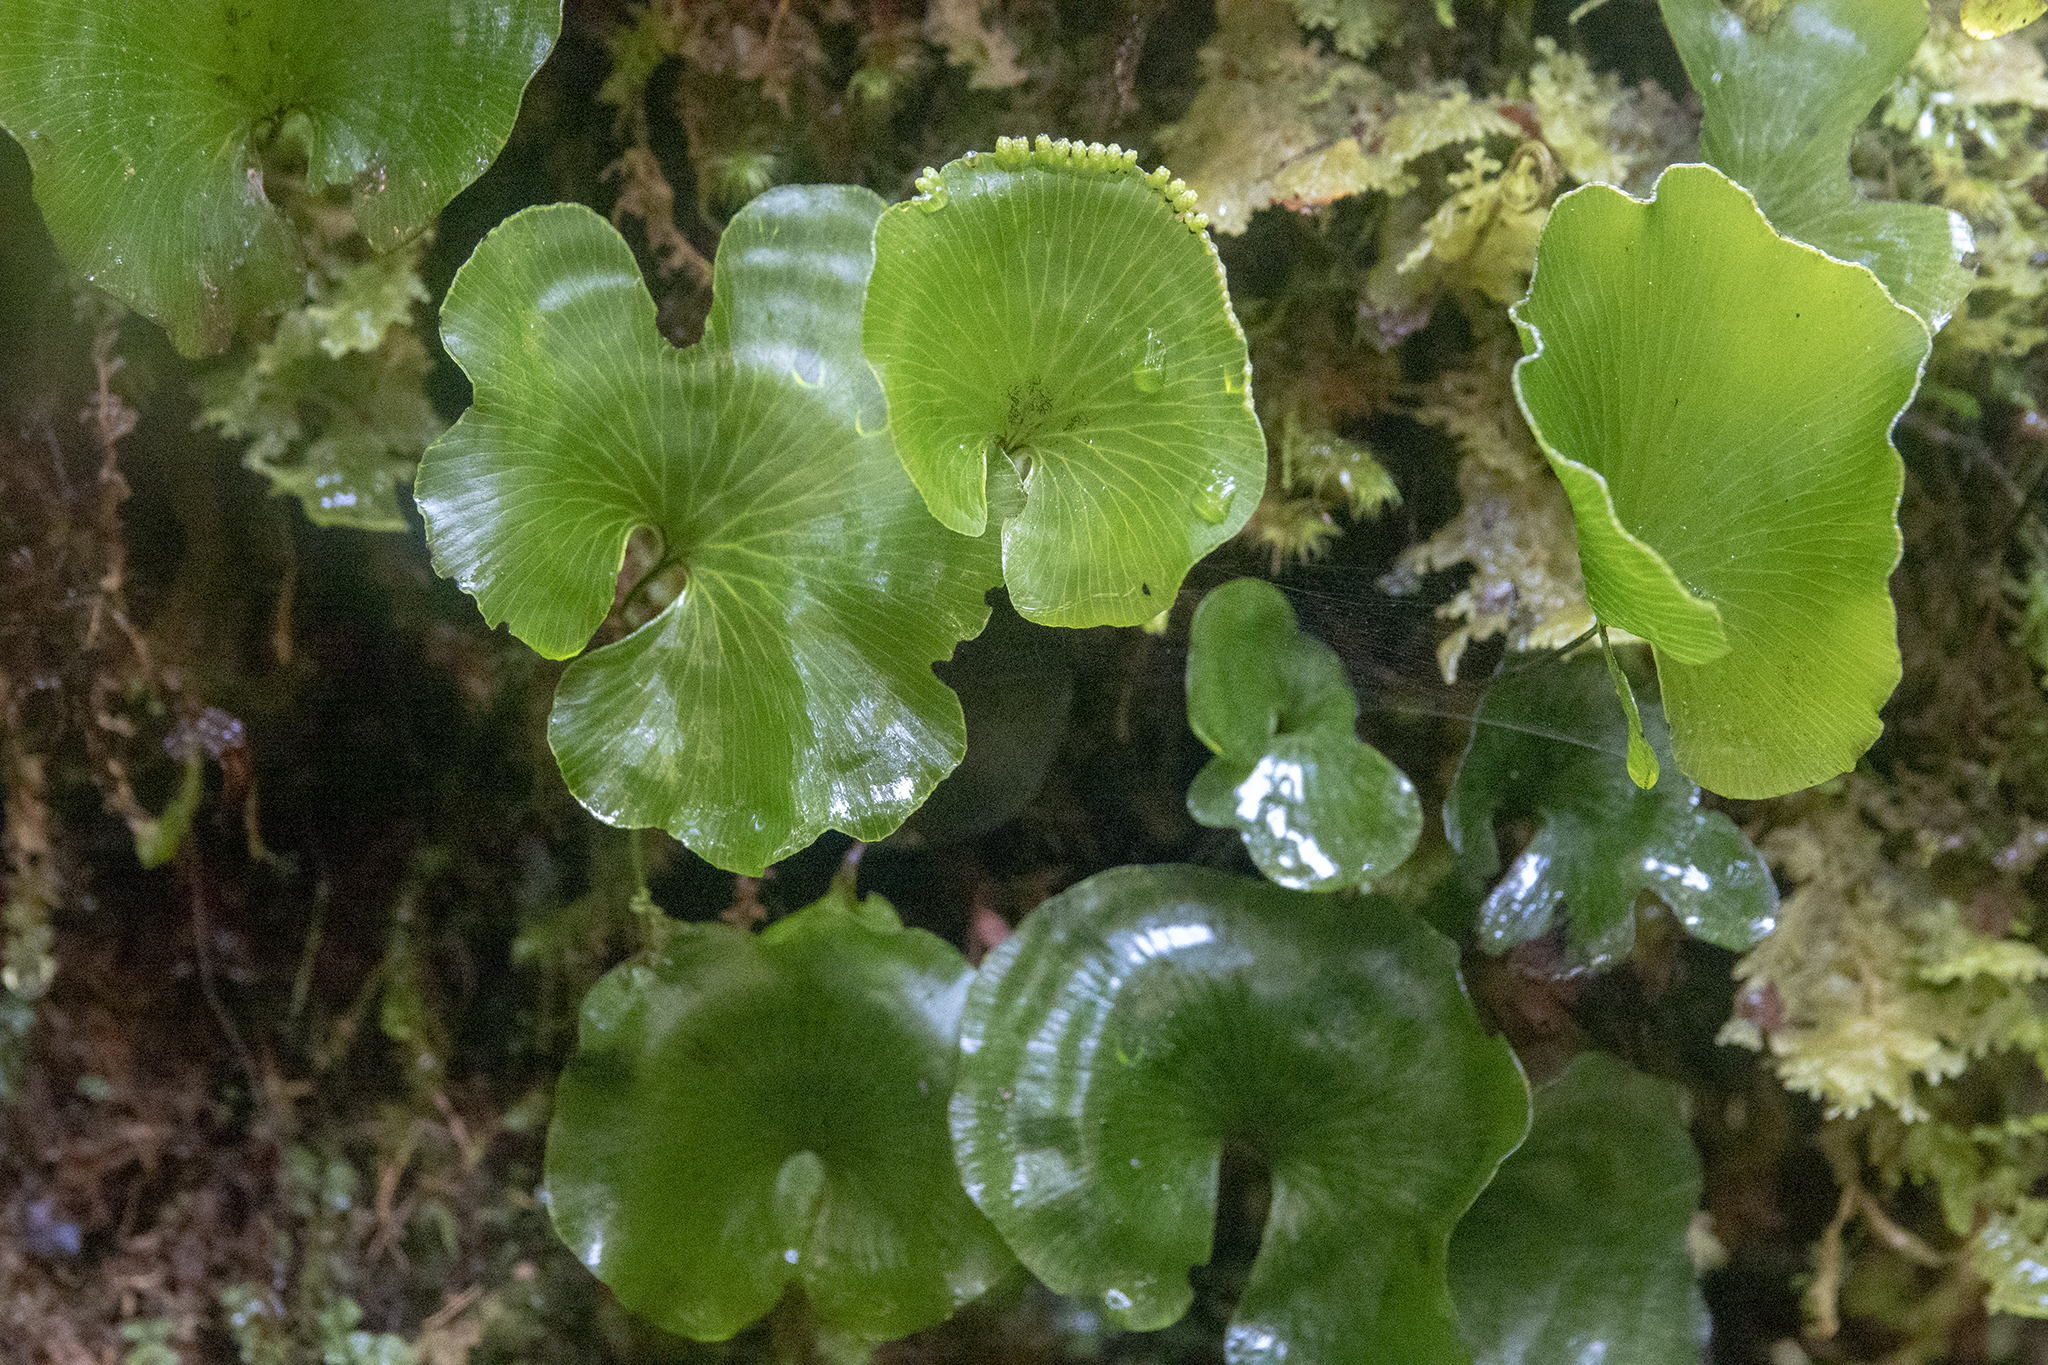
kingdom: Plantae
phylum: Tracheophyta
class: Polypodiopsida
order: Hymenophyllales
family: Hymenophyllaceae
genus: Hymenophyllum
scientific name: Hymenophyllum nephrophyllum
